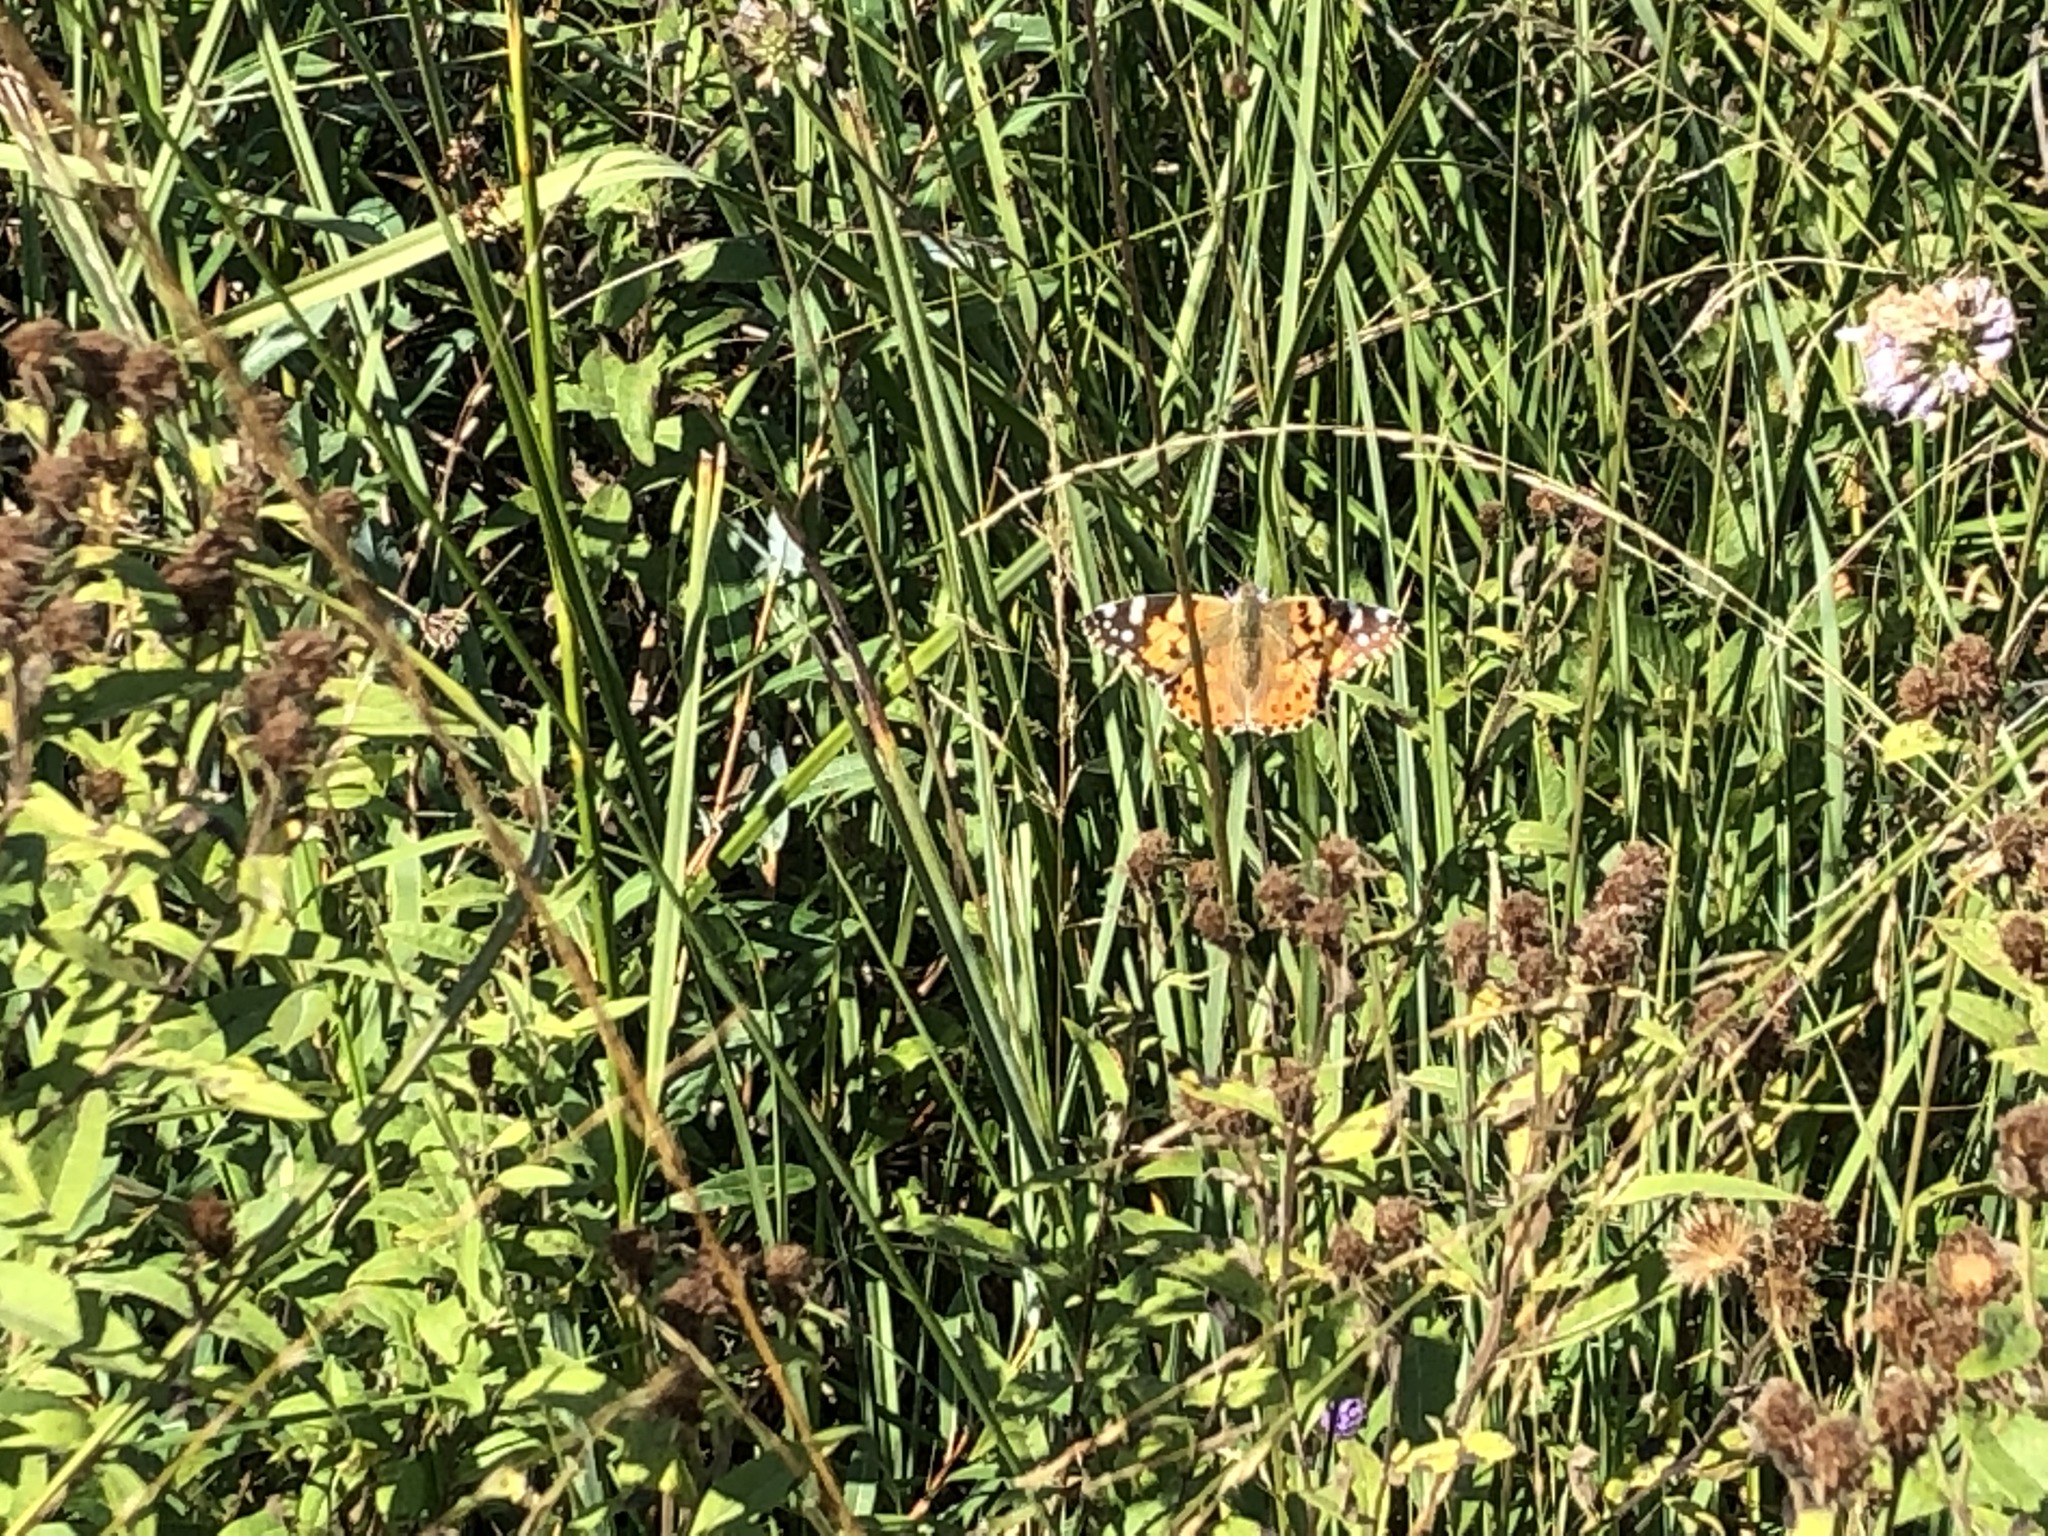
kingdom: Animalia
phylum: Arthropoda
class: Insecta
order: Lepidoptera
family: Nymphalidae
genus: Vanessa
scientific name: Vanessa cardui
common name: Painted lady
